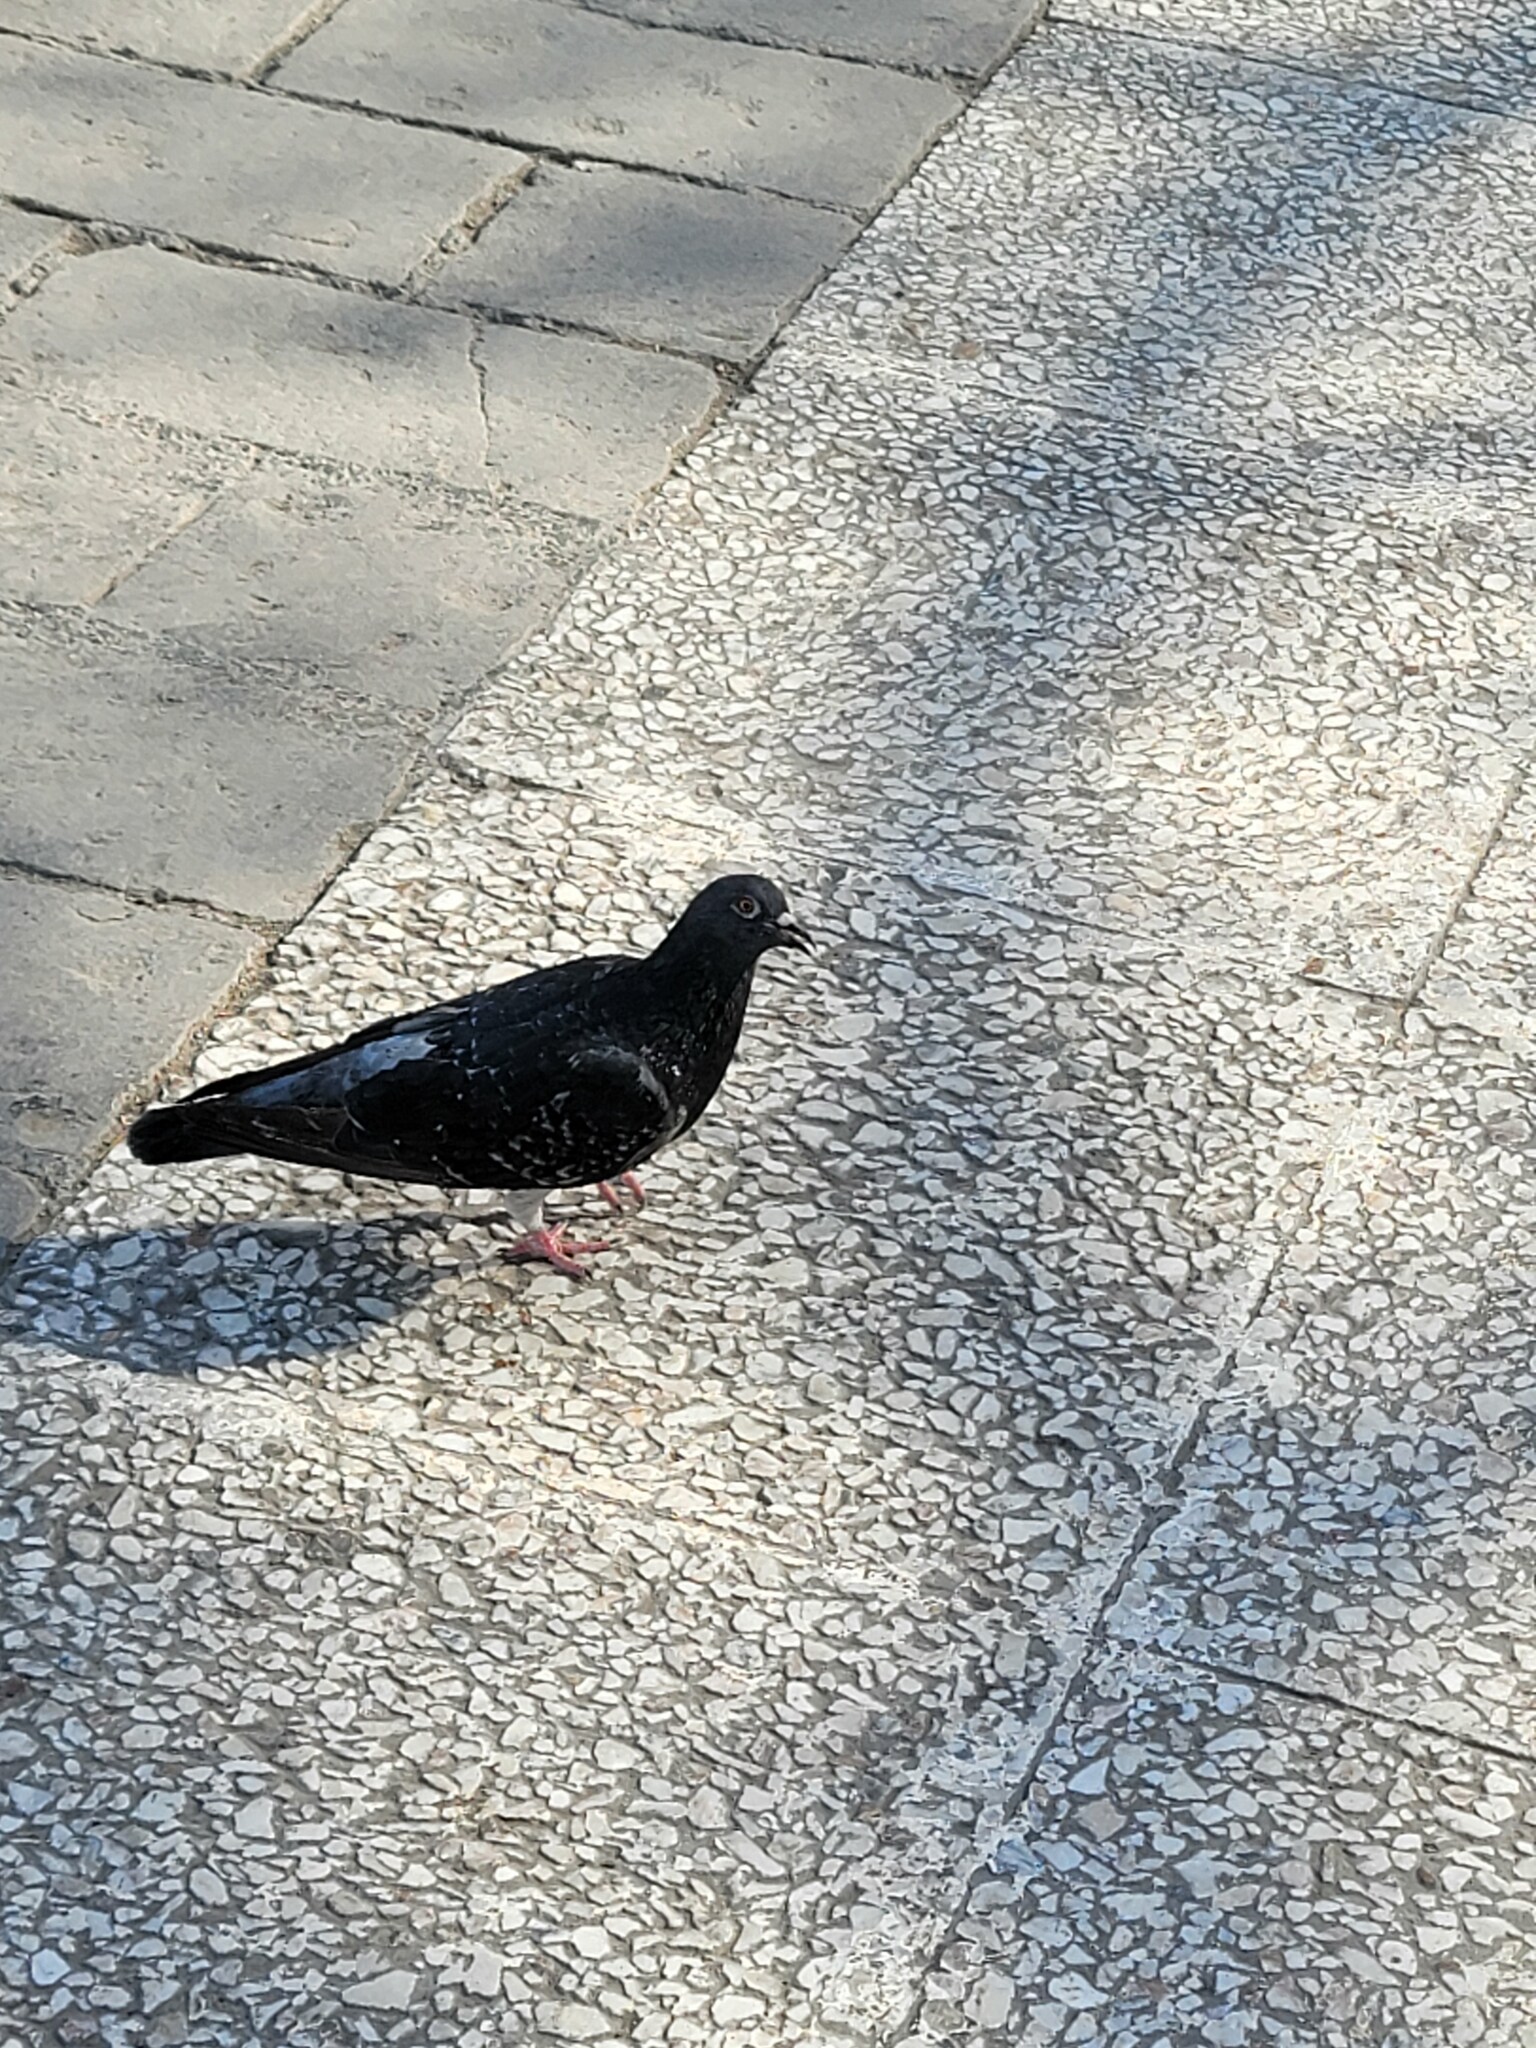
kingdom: Animalia
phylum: Chordata
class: Aves
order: Columbiformes
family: Columbidae
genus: Columba
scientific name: Columba livia
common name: Rock pigeon
